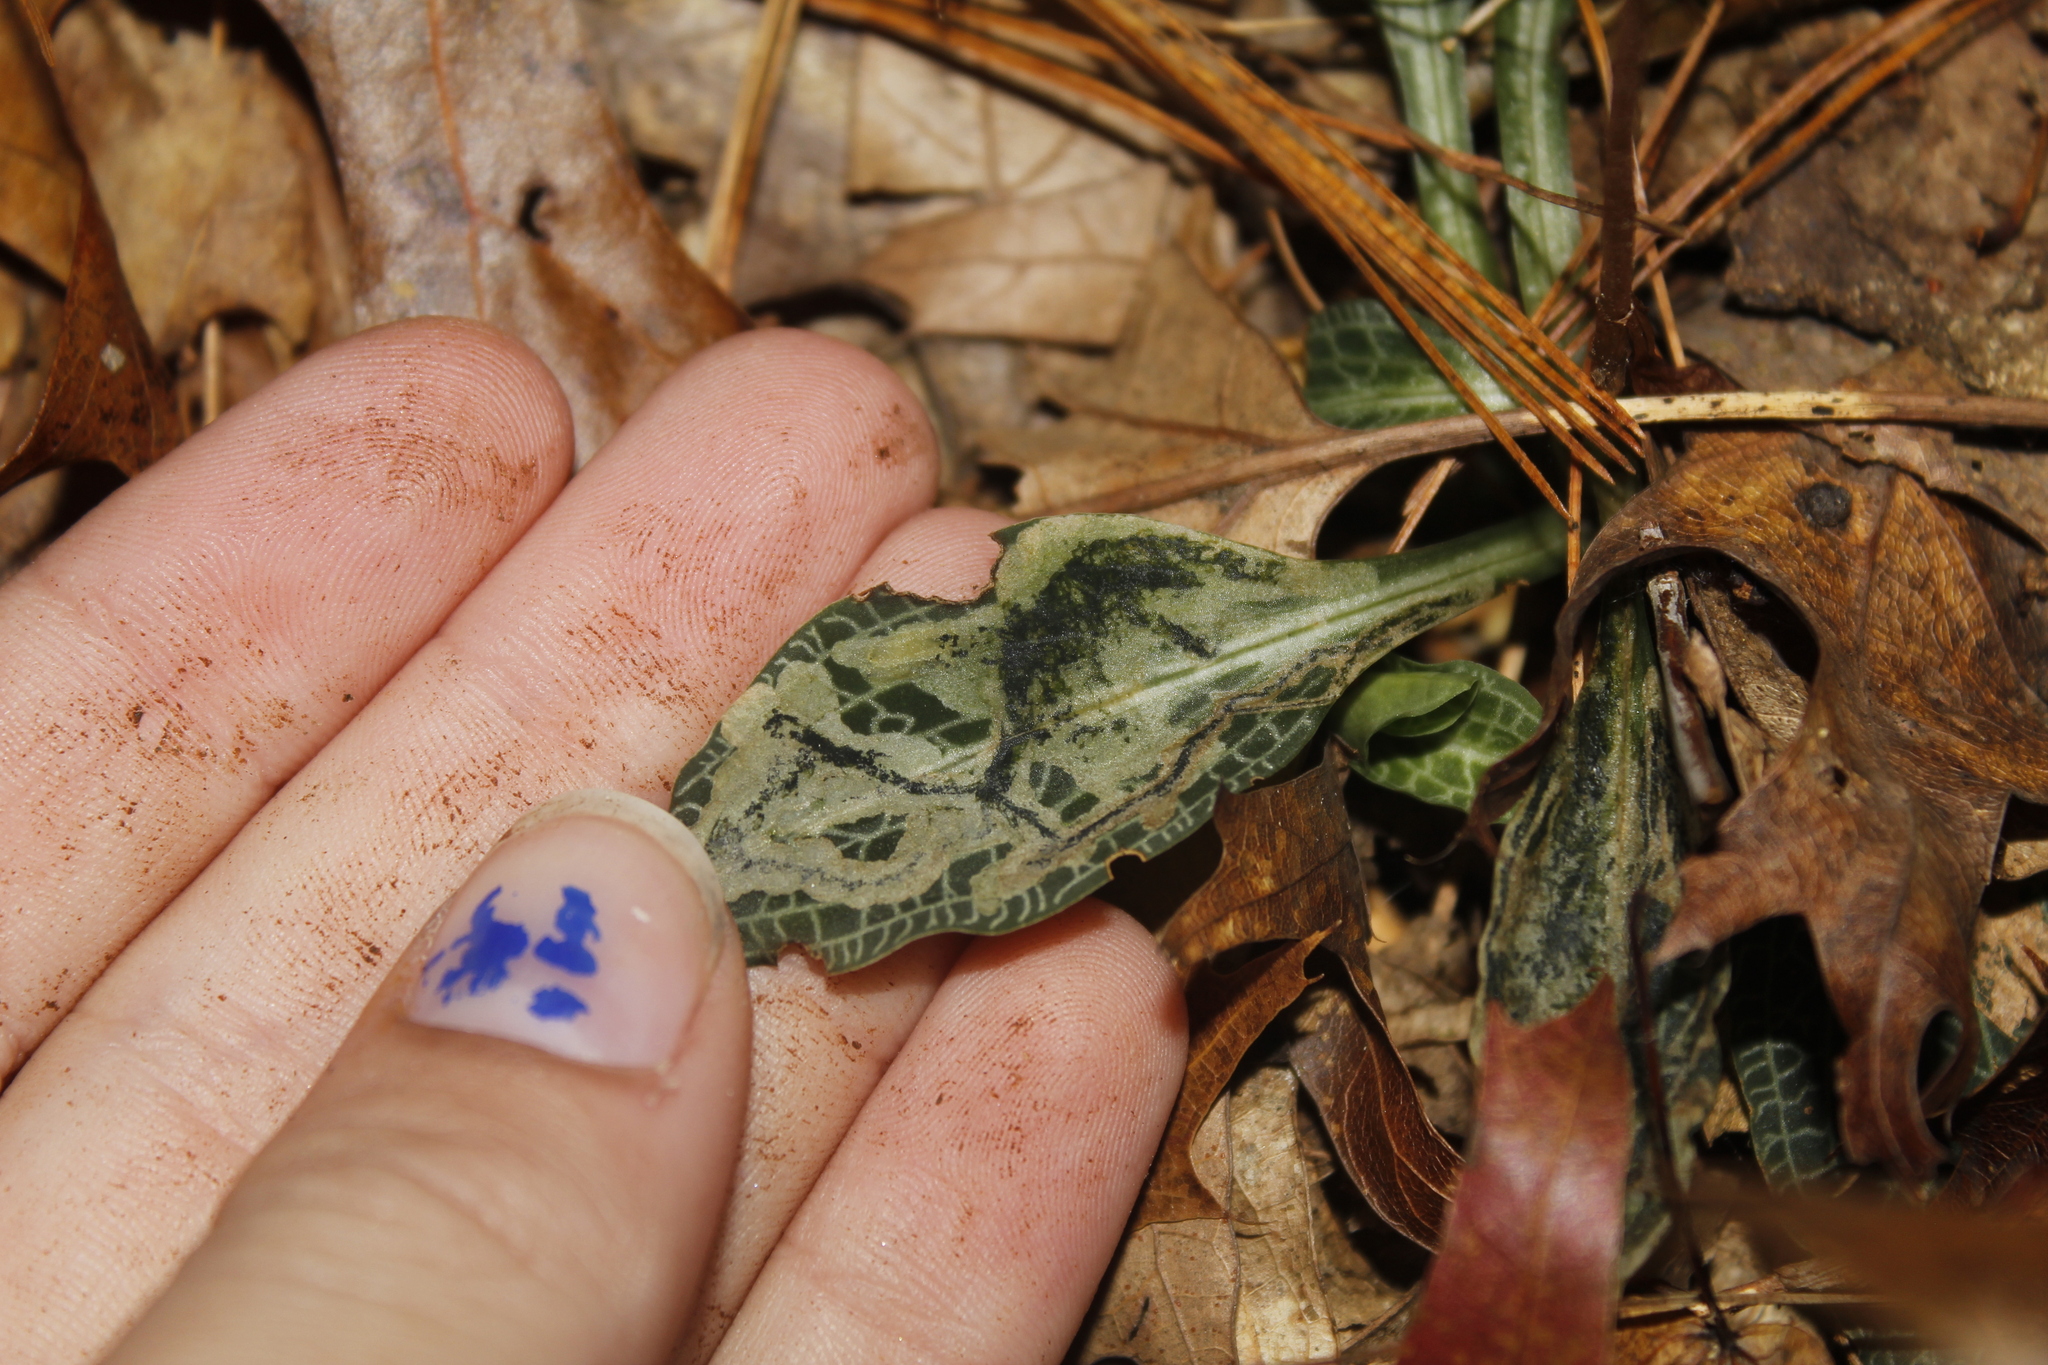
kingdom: Animalia
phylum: Arthropoda
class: Insecta
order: Diptera
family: Scathophagidae
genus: Leptopa
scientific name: Leptopa
